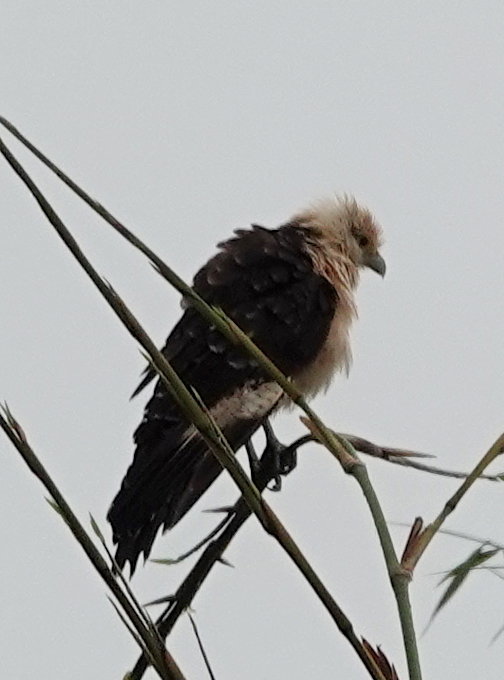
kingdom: Animalia
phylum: Chordata
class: Aves
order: Falconiformes
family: Falconidae
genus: Daptrius
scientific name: Daptrius
